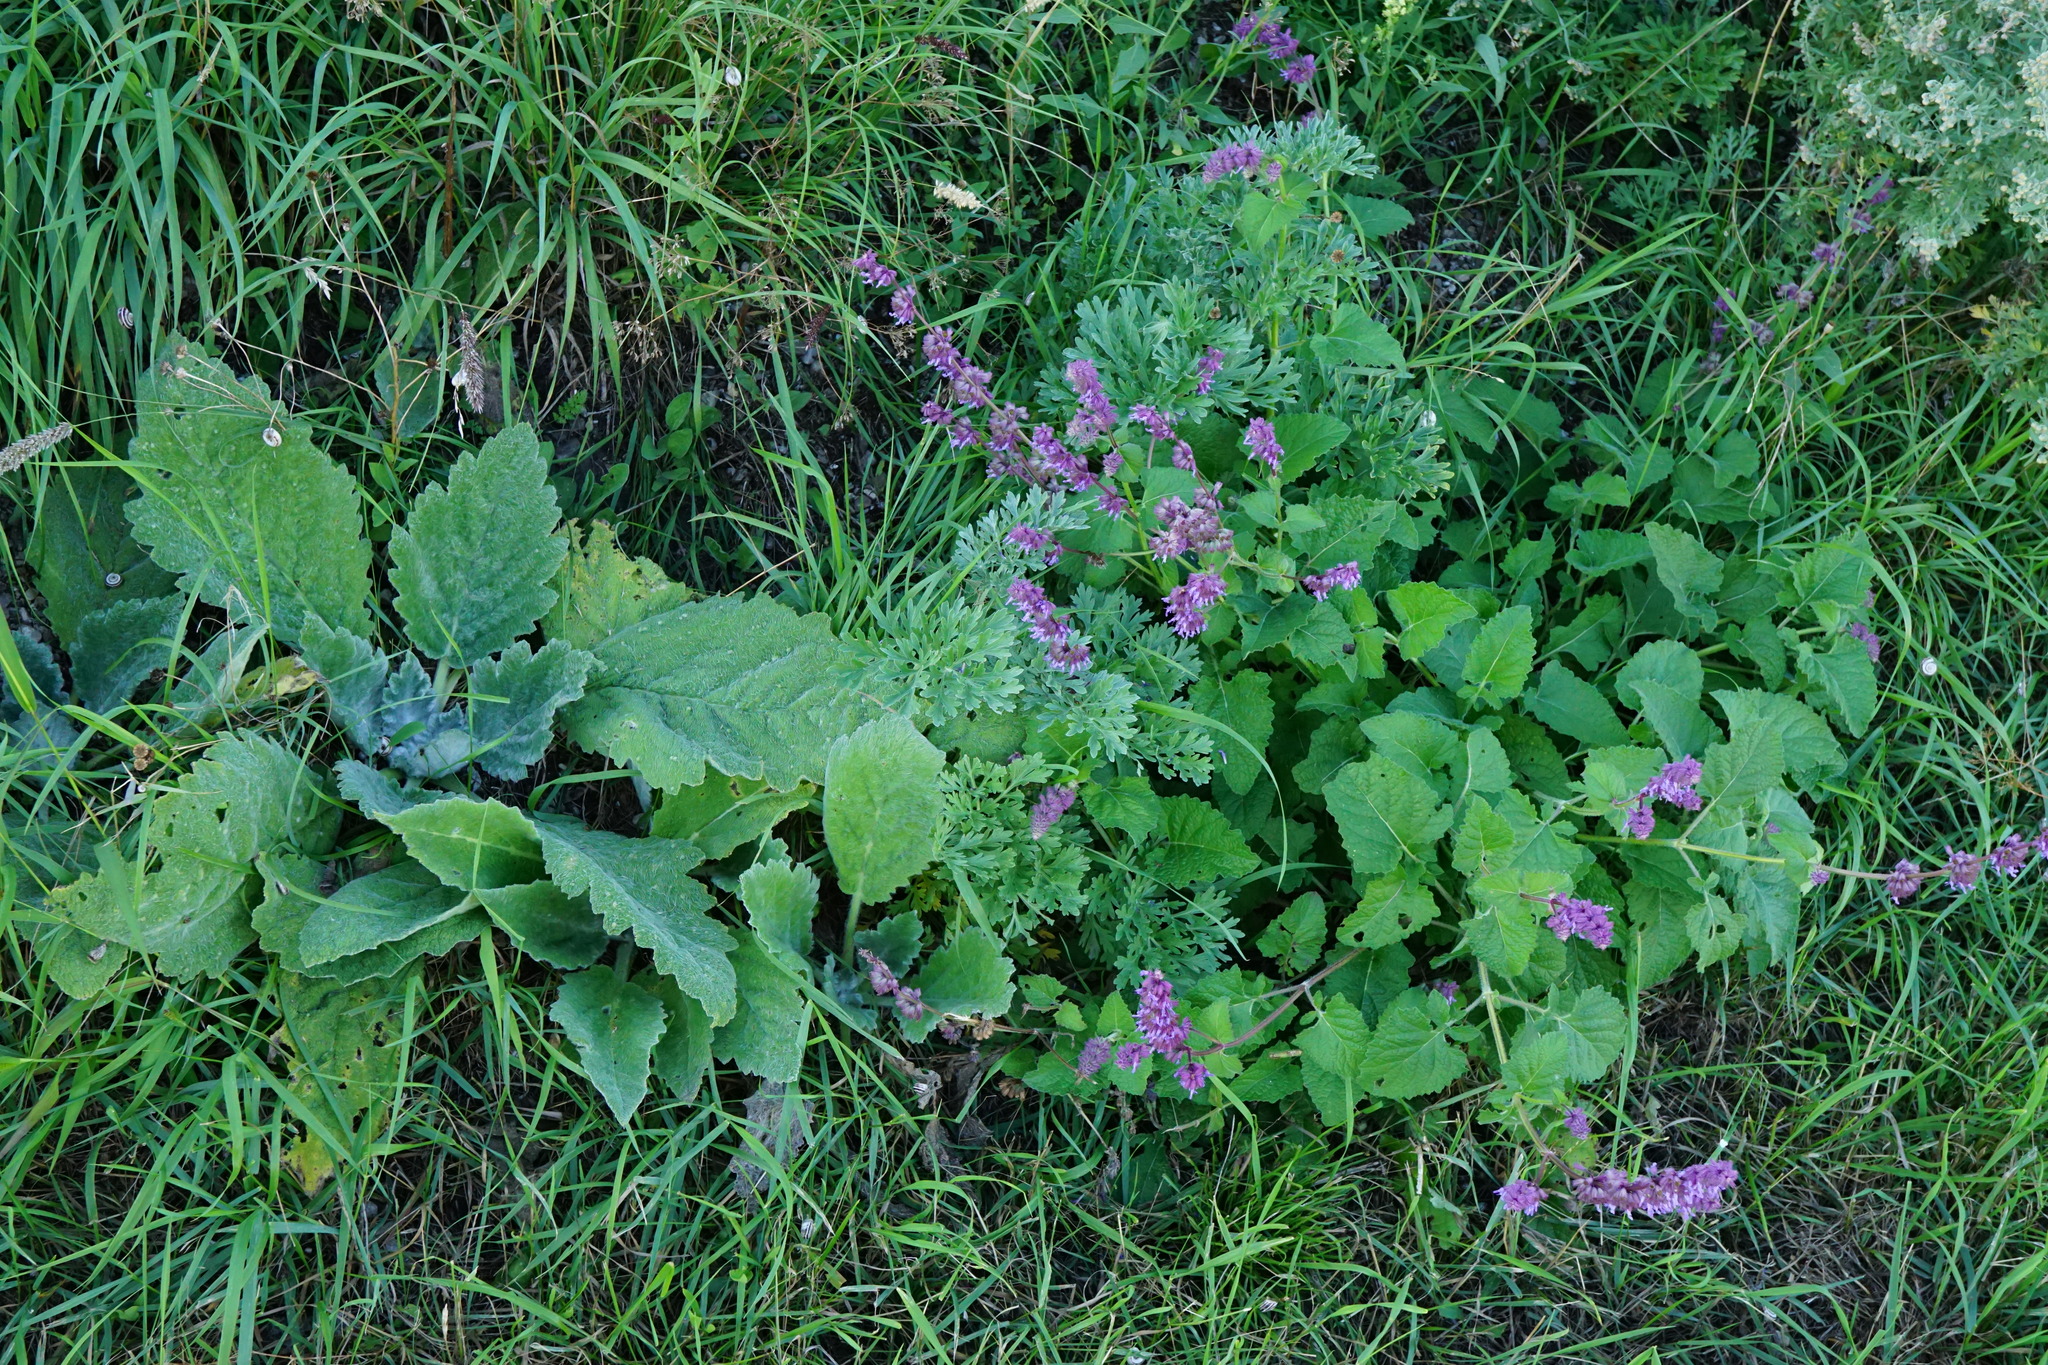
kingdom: Plantae
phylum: Tracheophyta
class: Magnoliopsida
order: Lamiales
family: Lamiaceae
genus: Salvia
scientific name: Salvia verticillata
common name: Whorled clary
